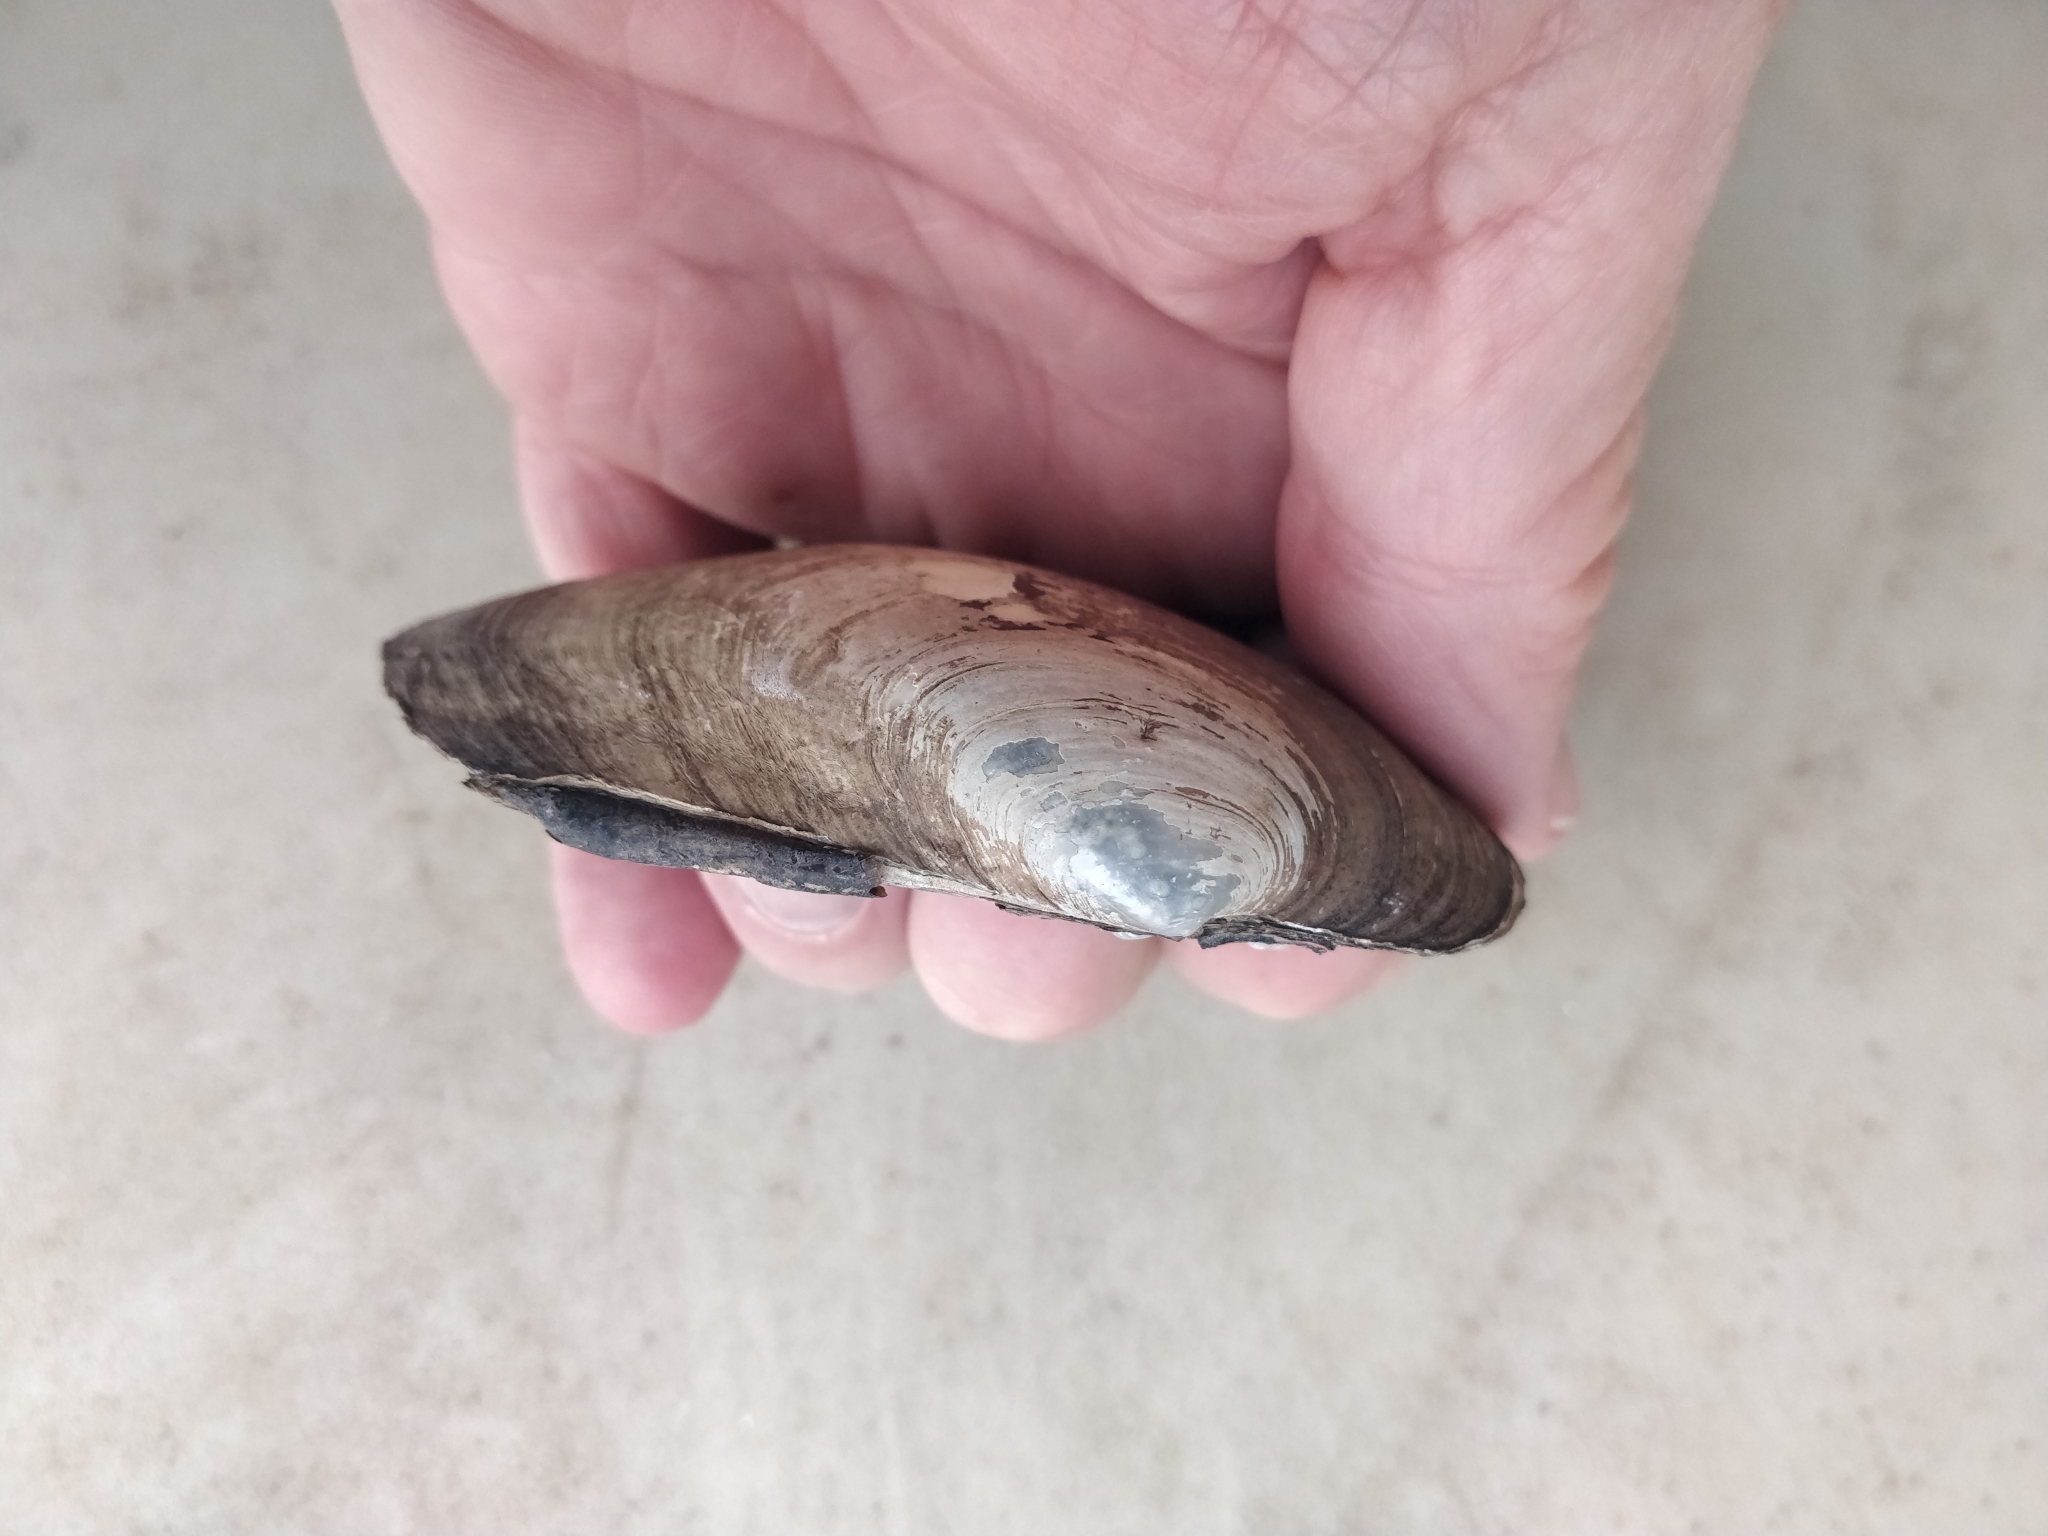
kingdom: Animalia
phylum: Mollusca
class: Bivalvia
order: Unionida
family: Unionidae
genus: Lampsilis
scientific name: Lampsilis siliquoidea
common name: Fatmucket
